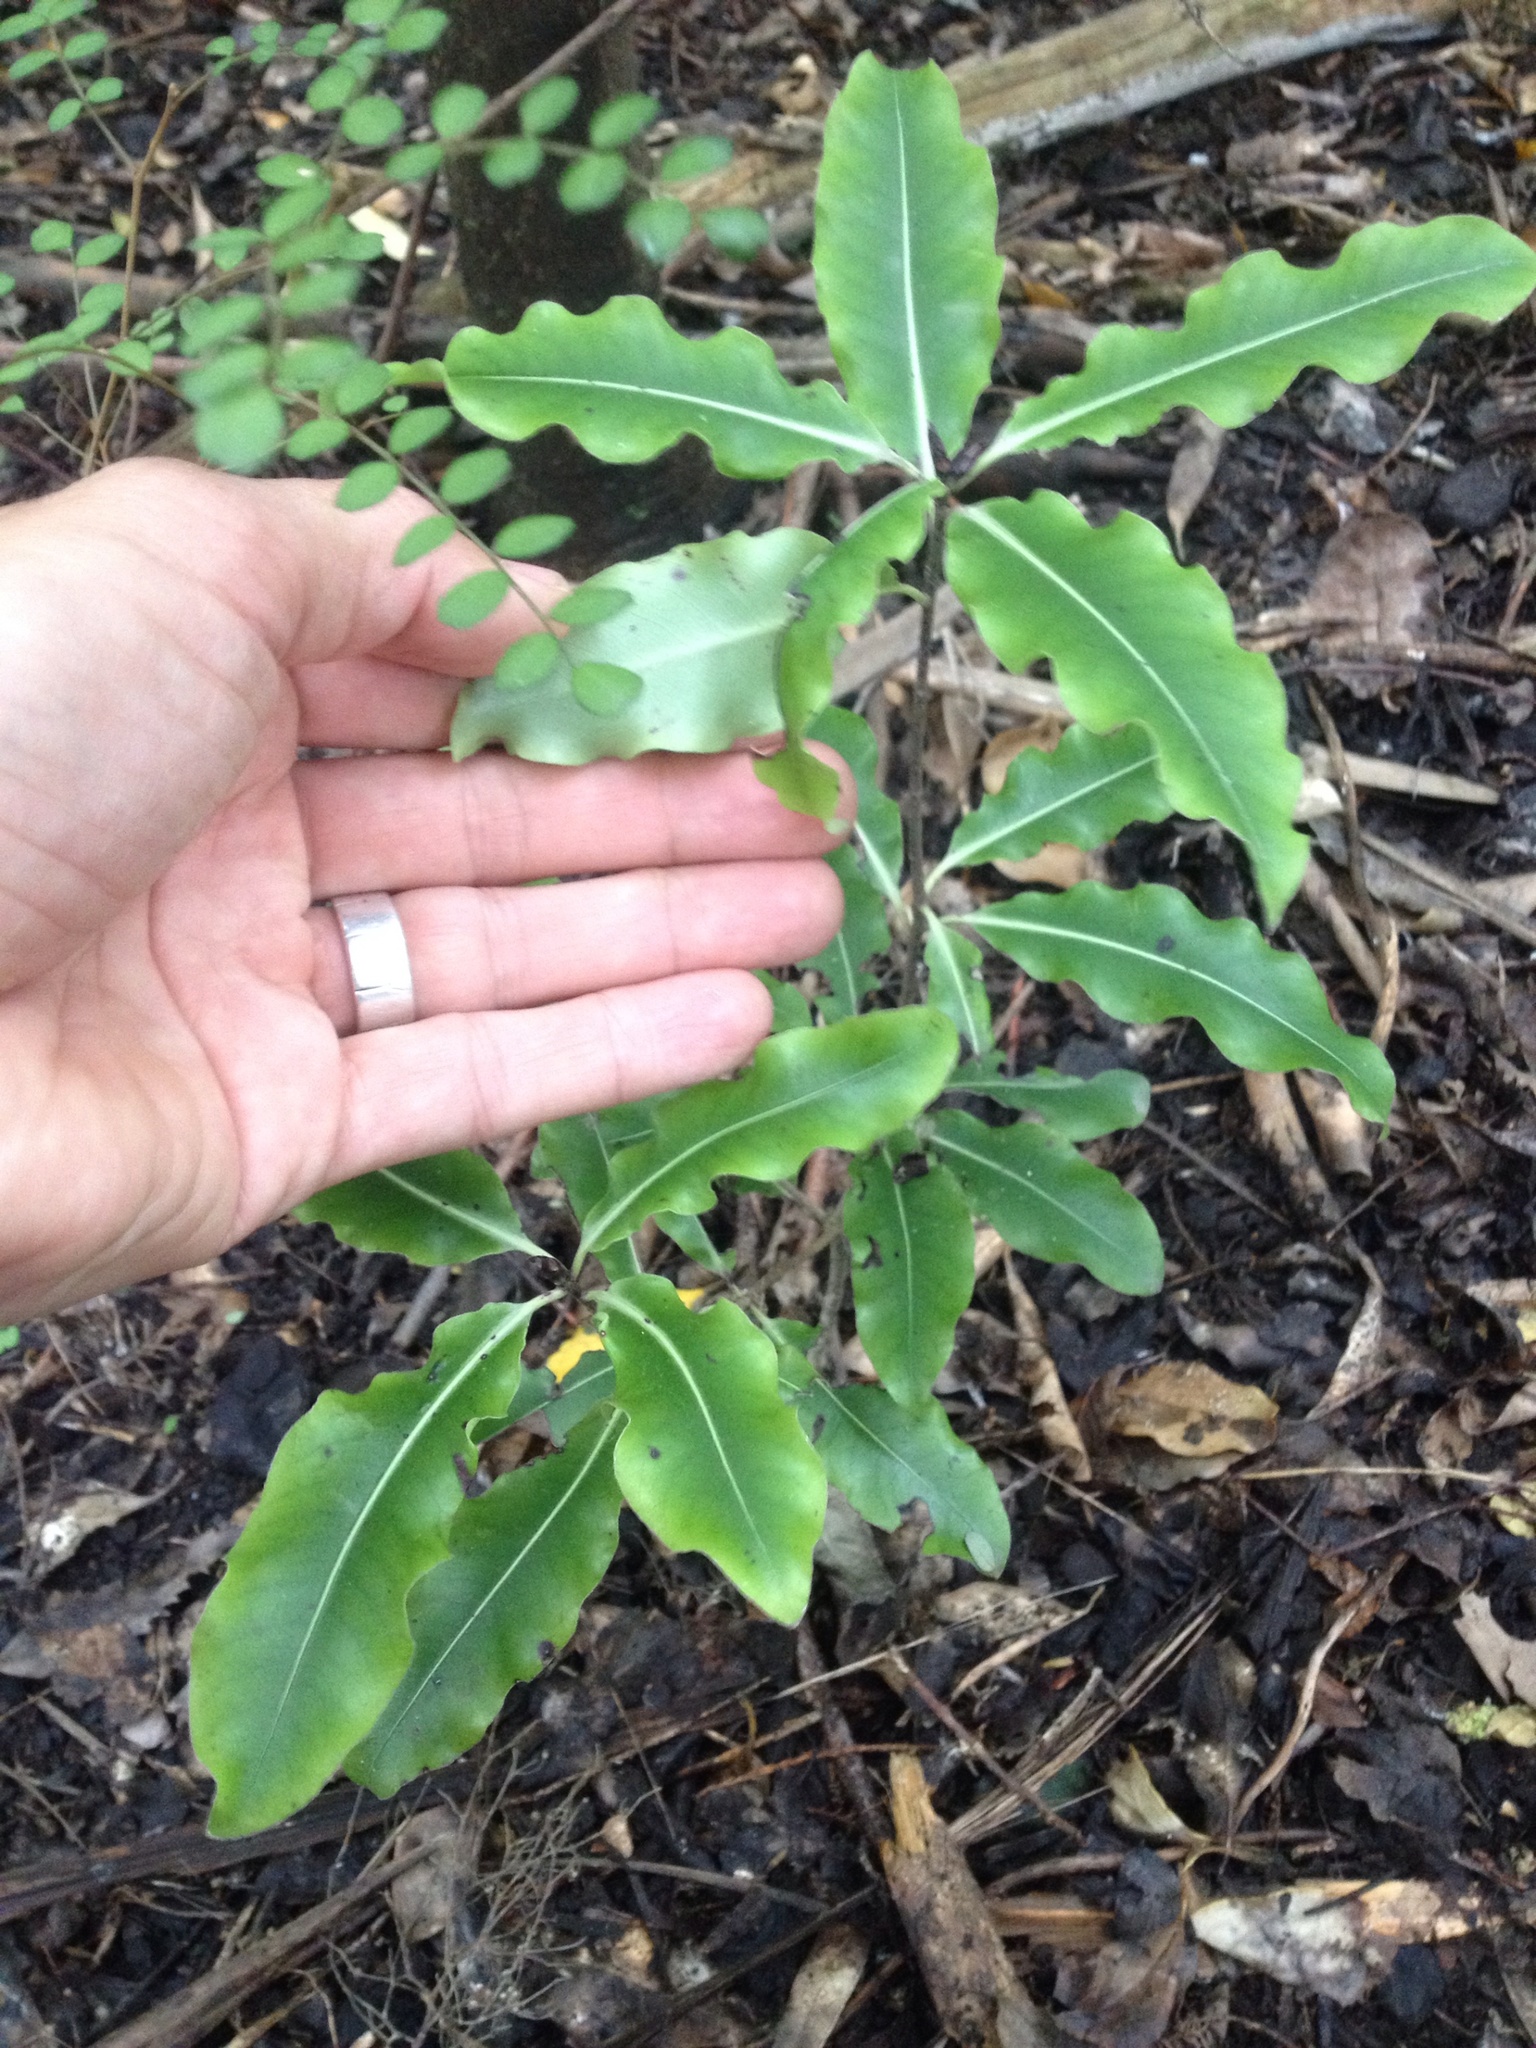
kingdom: Plantae
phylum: Tracheophyta
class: Magnoliopsida
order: Apiales
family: Pittosporaceae
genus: Pittosporum
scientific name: Pittosporum eugenioides
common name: Lemonwood
